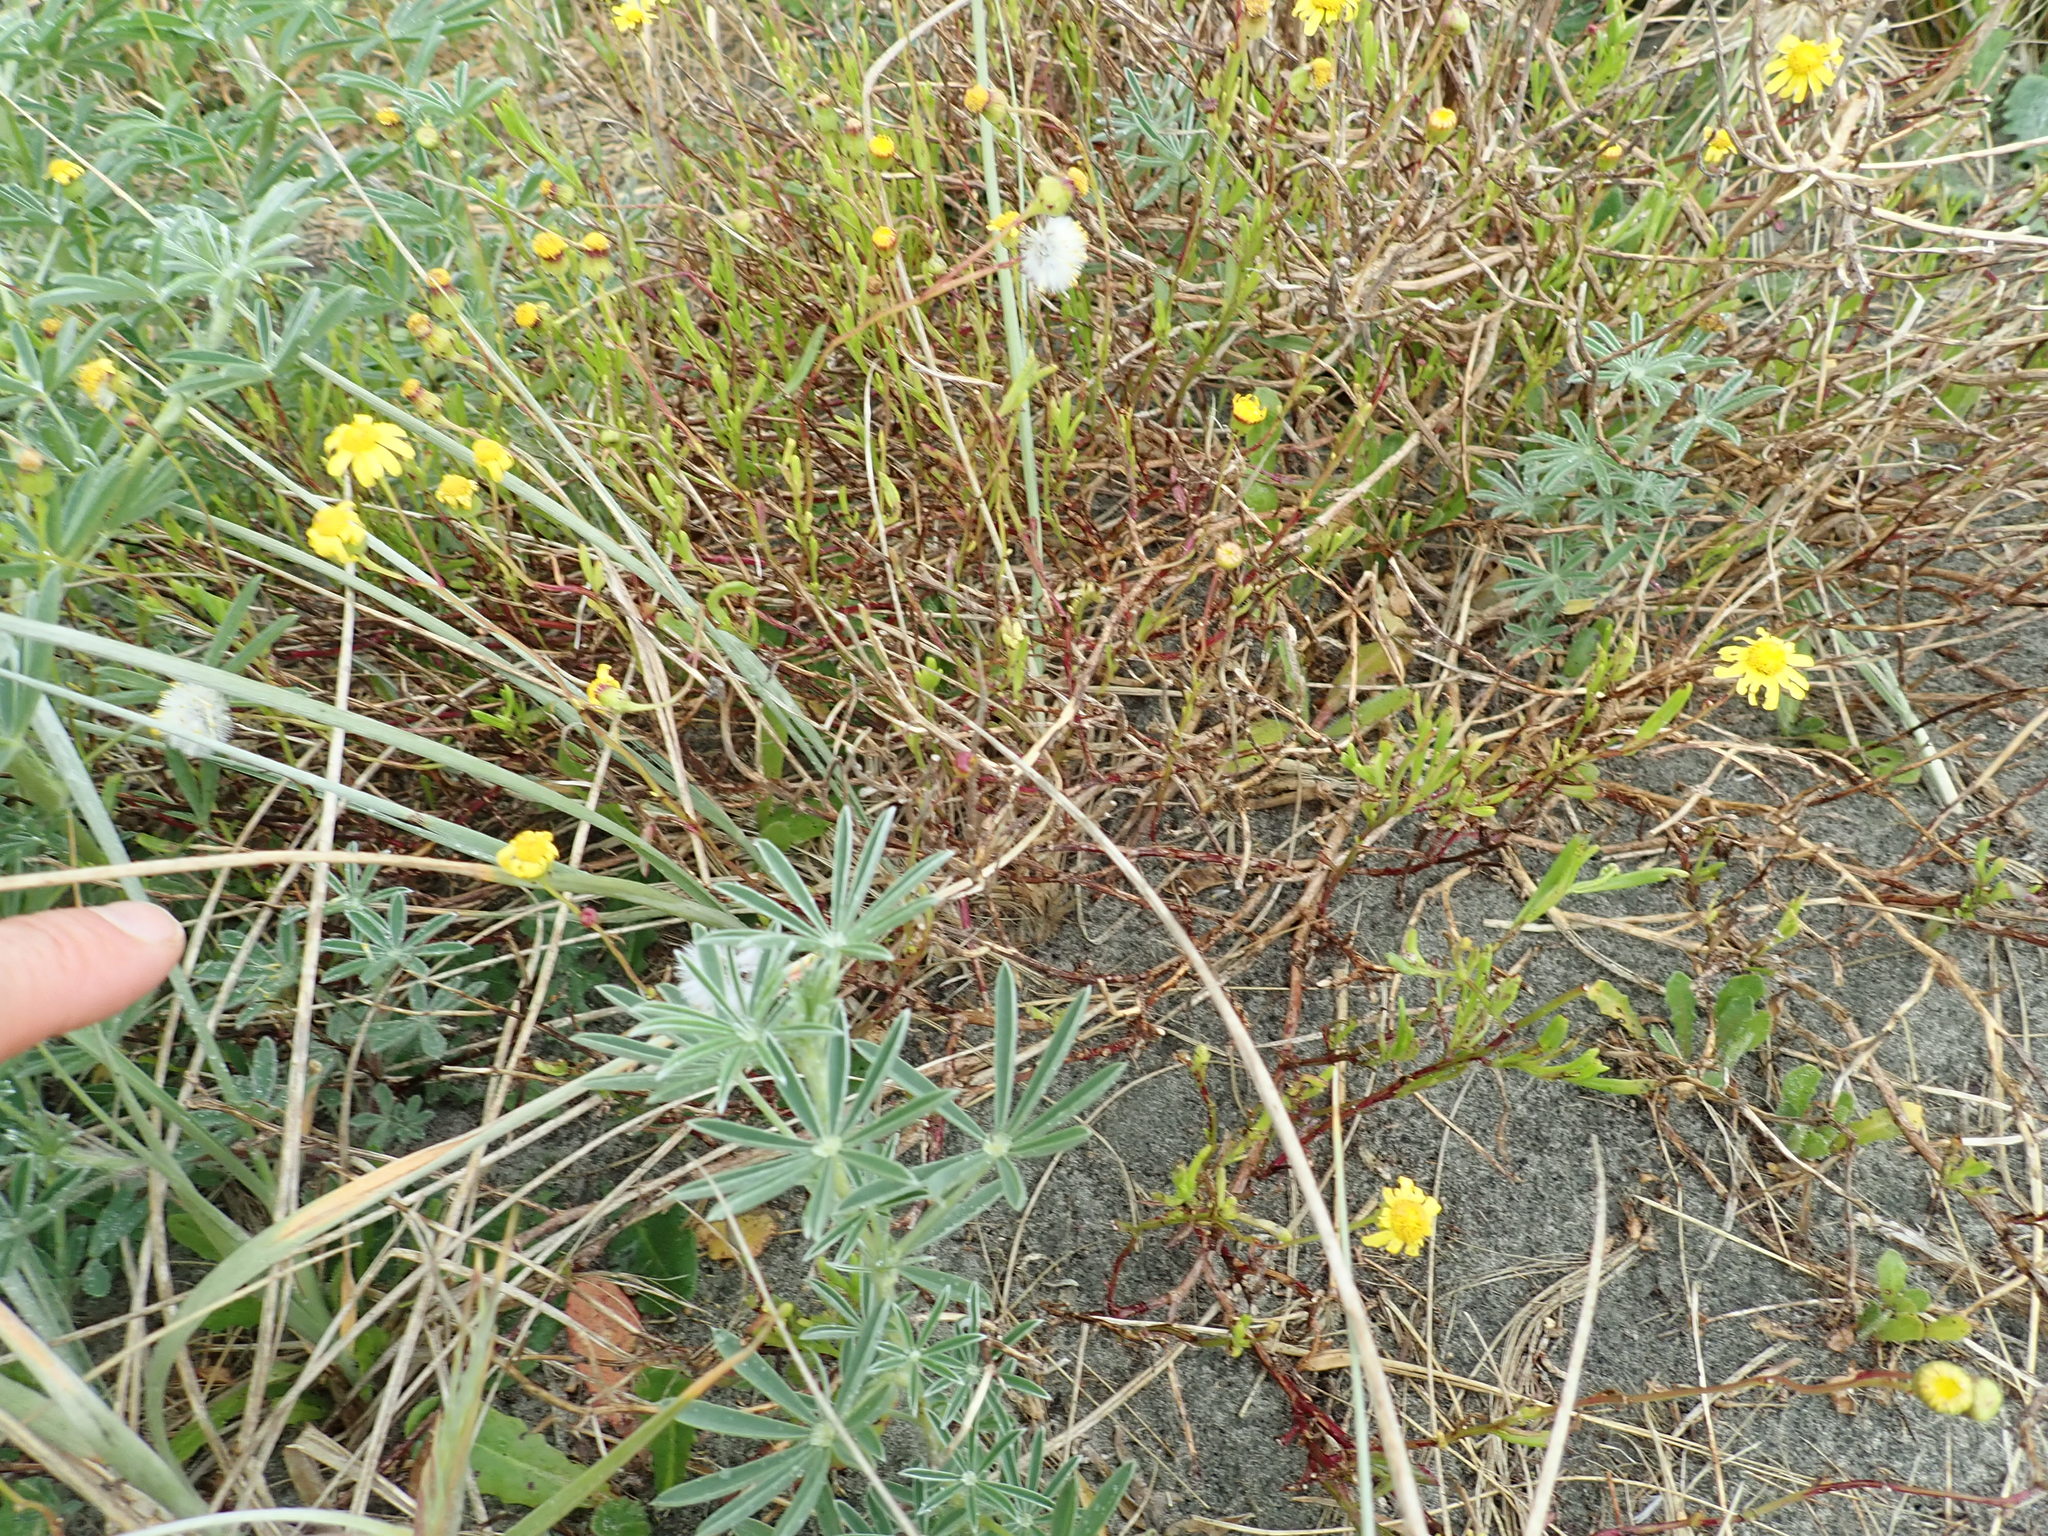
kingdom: Plantae
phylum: Tracheophyta
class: Magnoliopsida
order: Asterales
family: Asteraceae
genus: Senecio
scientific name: Senecio skirrhodon
